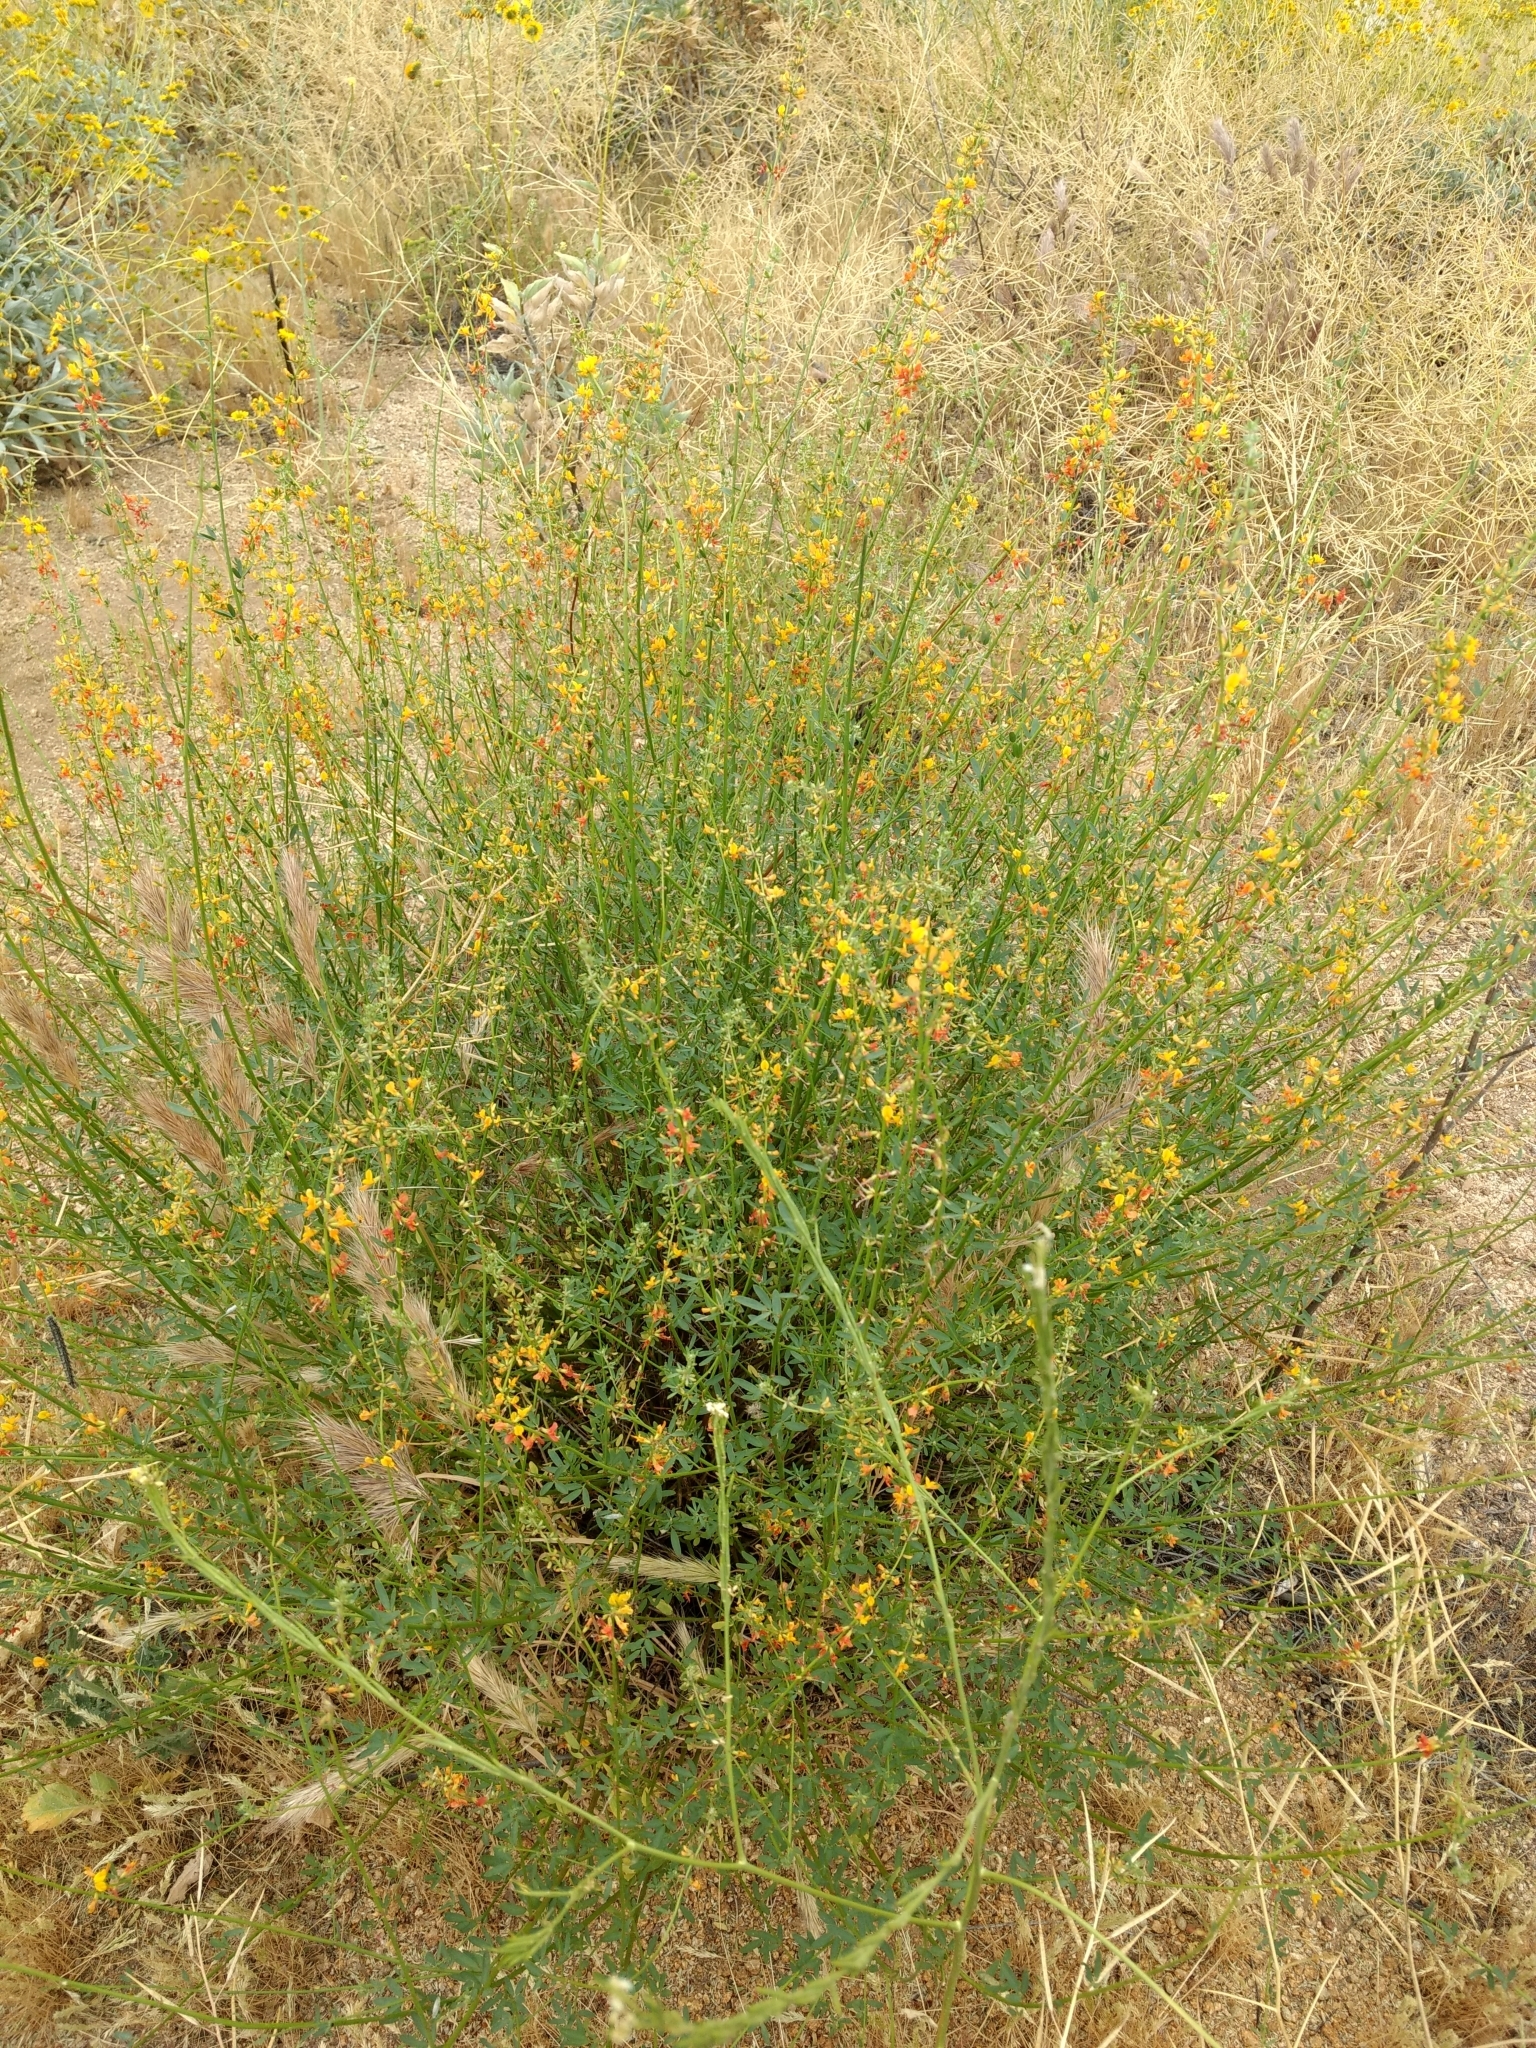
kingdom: Plantae
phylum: Tracheophyta
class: Magnoliopsida
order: Fabales
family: Fabaceae
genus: Acmispon
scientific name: Acmispon glaber
